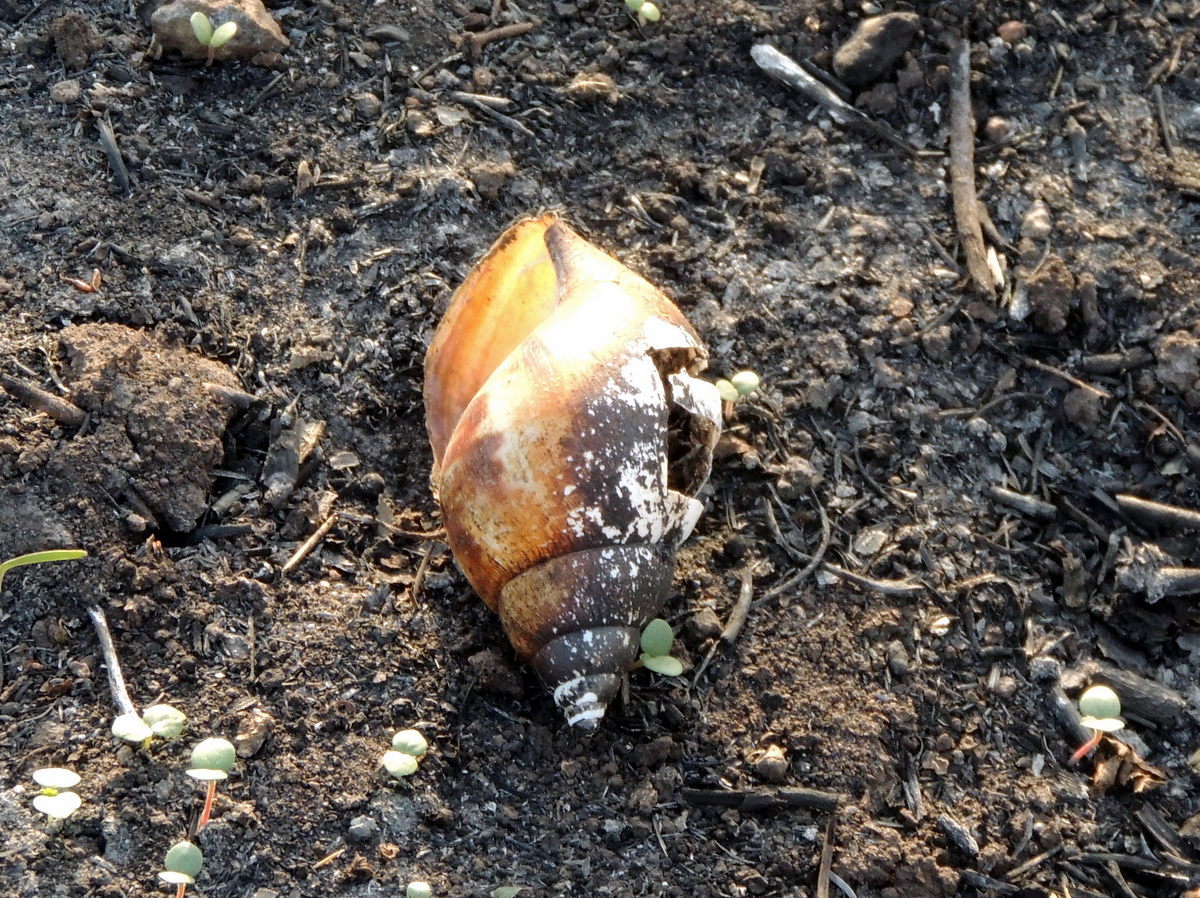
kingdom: Animalia
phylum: Mollusca
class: Gastropoda
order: Stylommatophora
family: Achatinidae
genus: Lissachatina
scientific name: Lissachatina fulica
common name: Giant african snail
